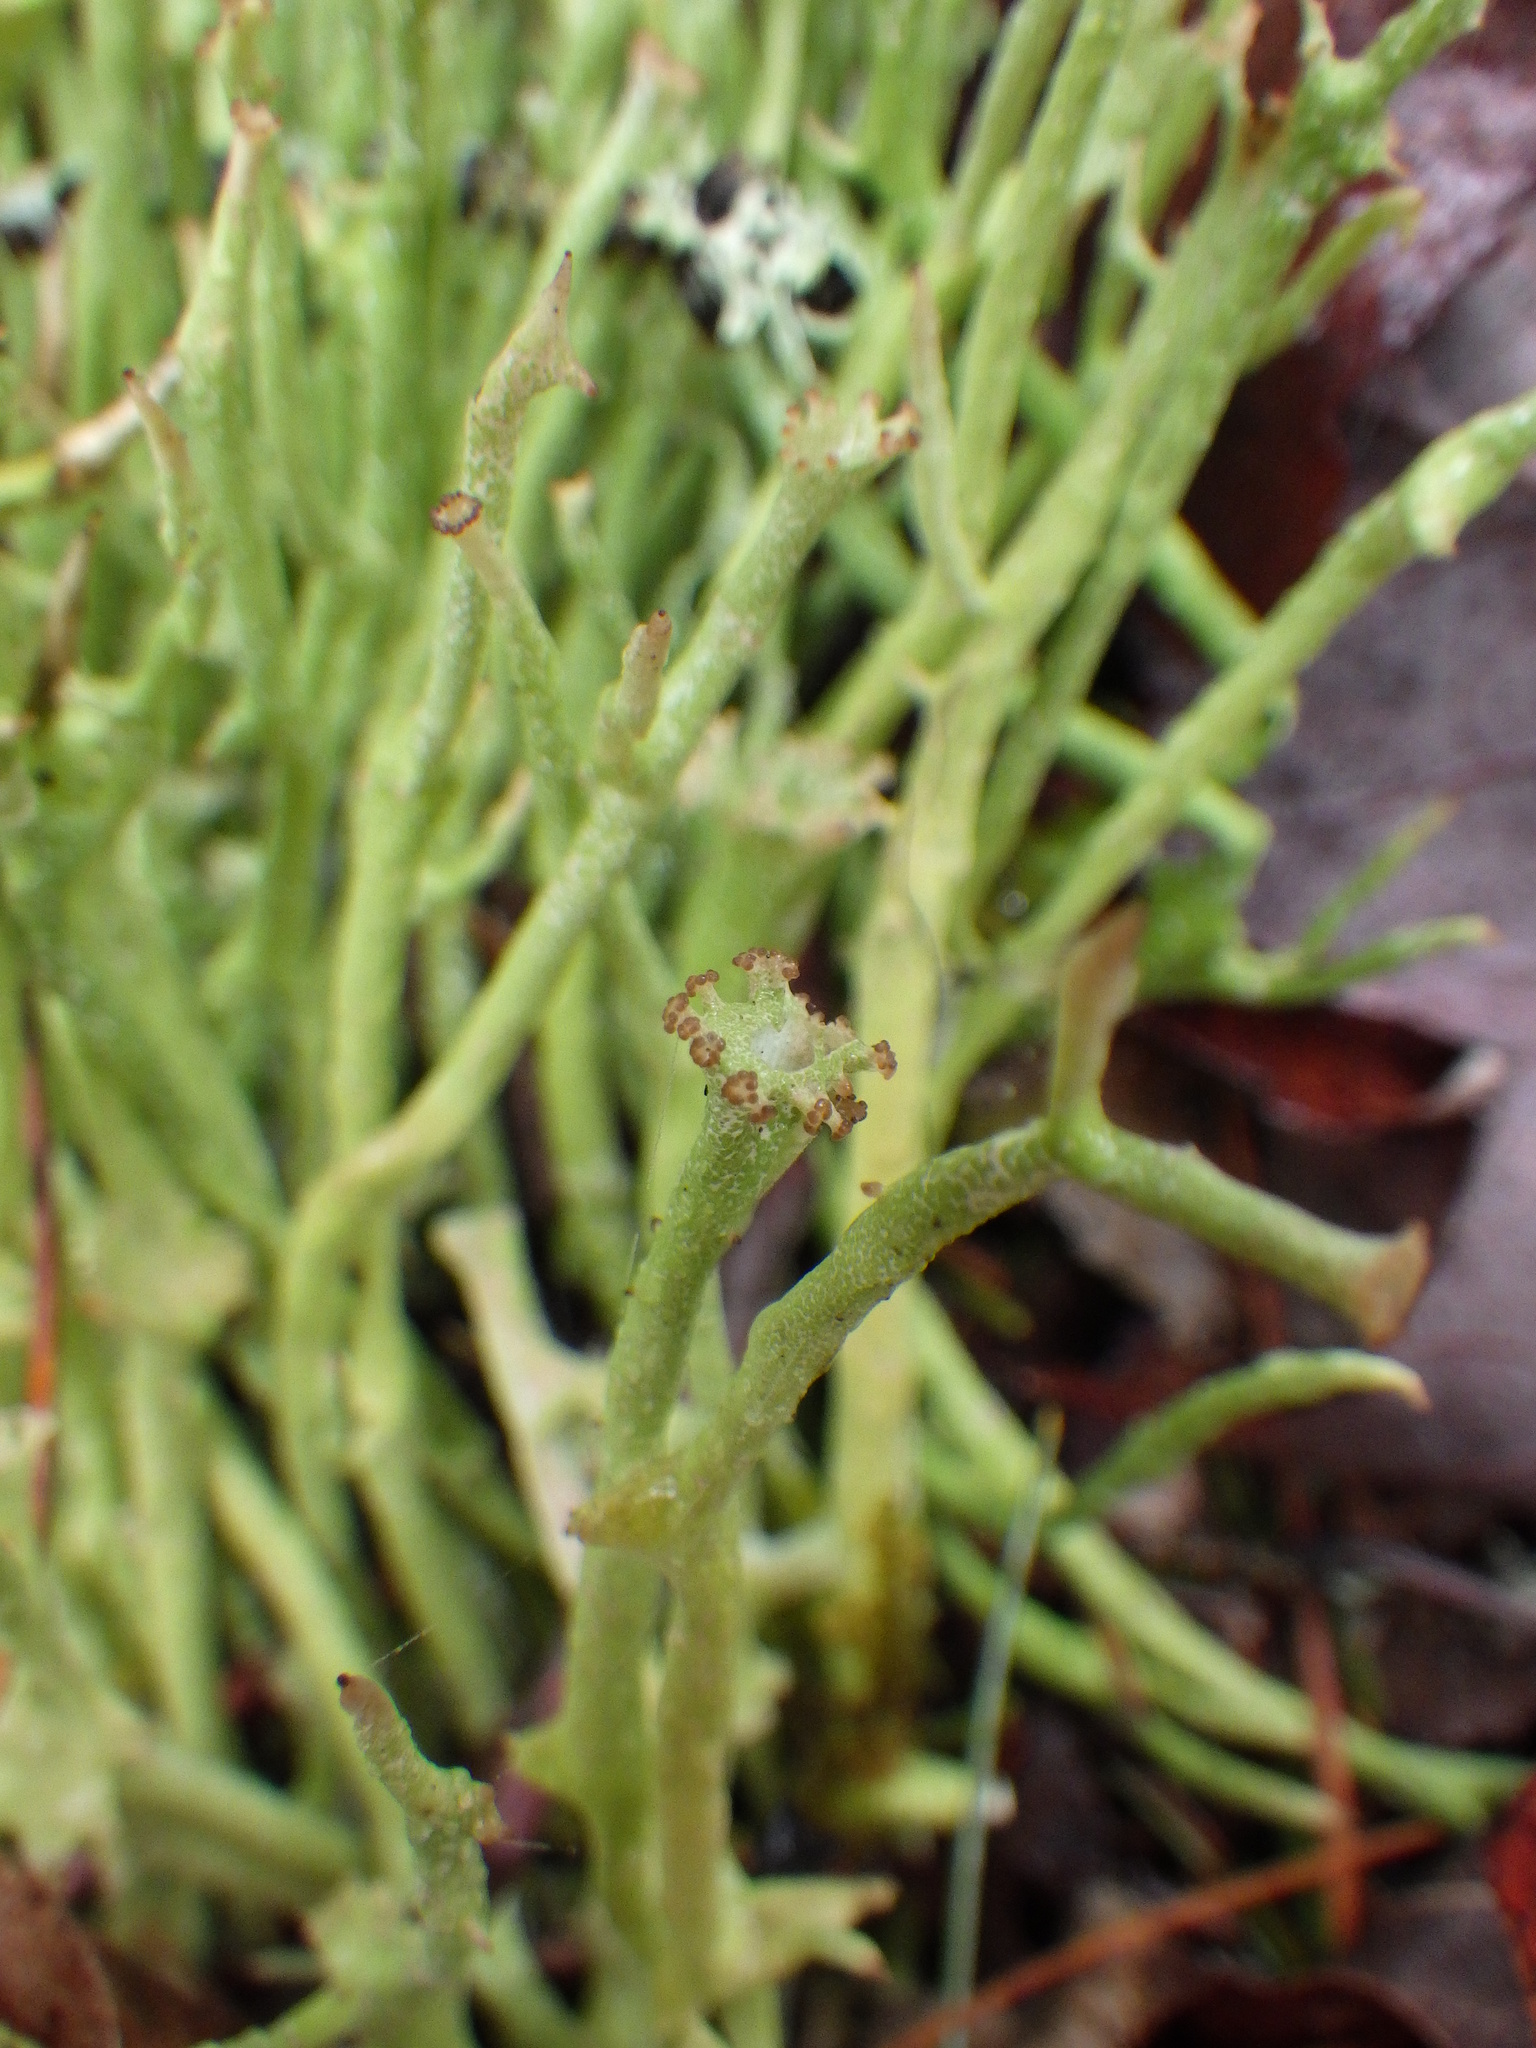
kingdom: Fungi
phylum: Ascomycota
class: Lecanoromycetes
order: Lecanorales
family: Cladoniaceae
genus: Cladonia
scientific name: Cladonia maxima
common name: Giant cladonia lichen
